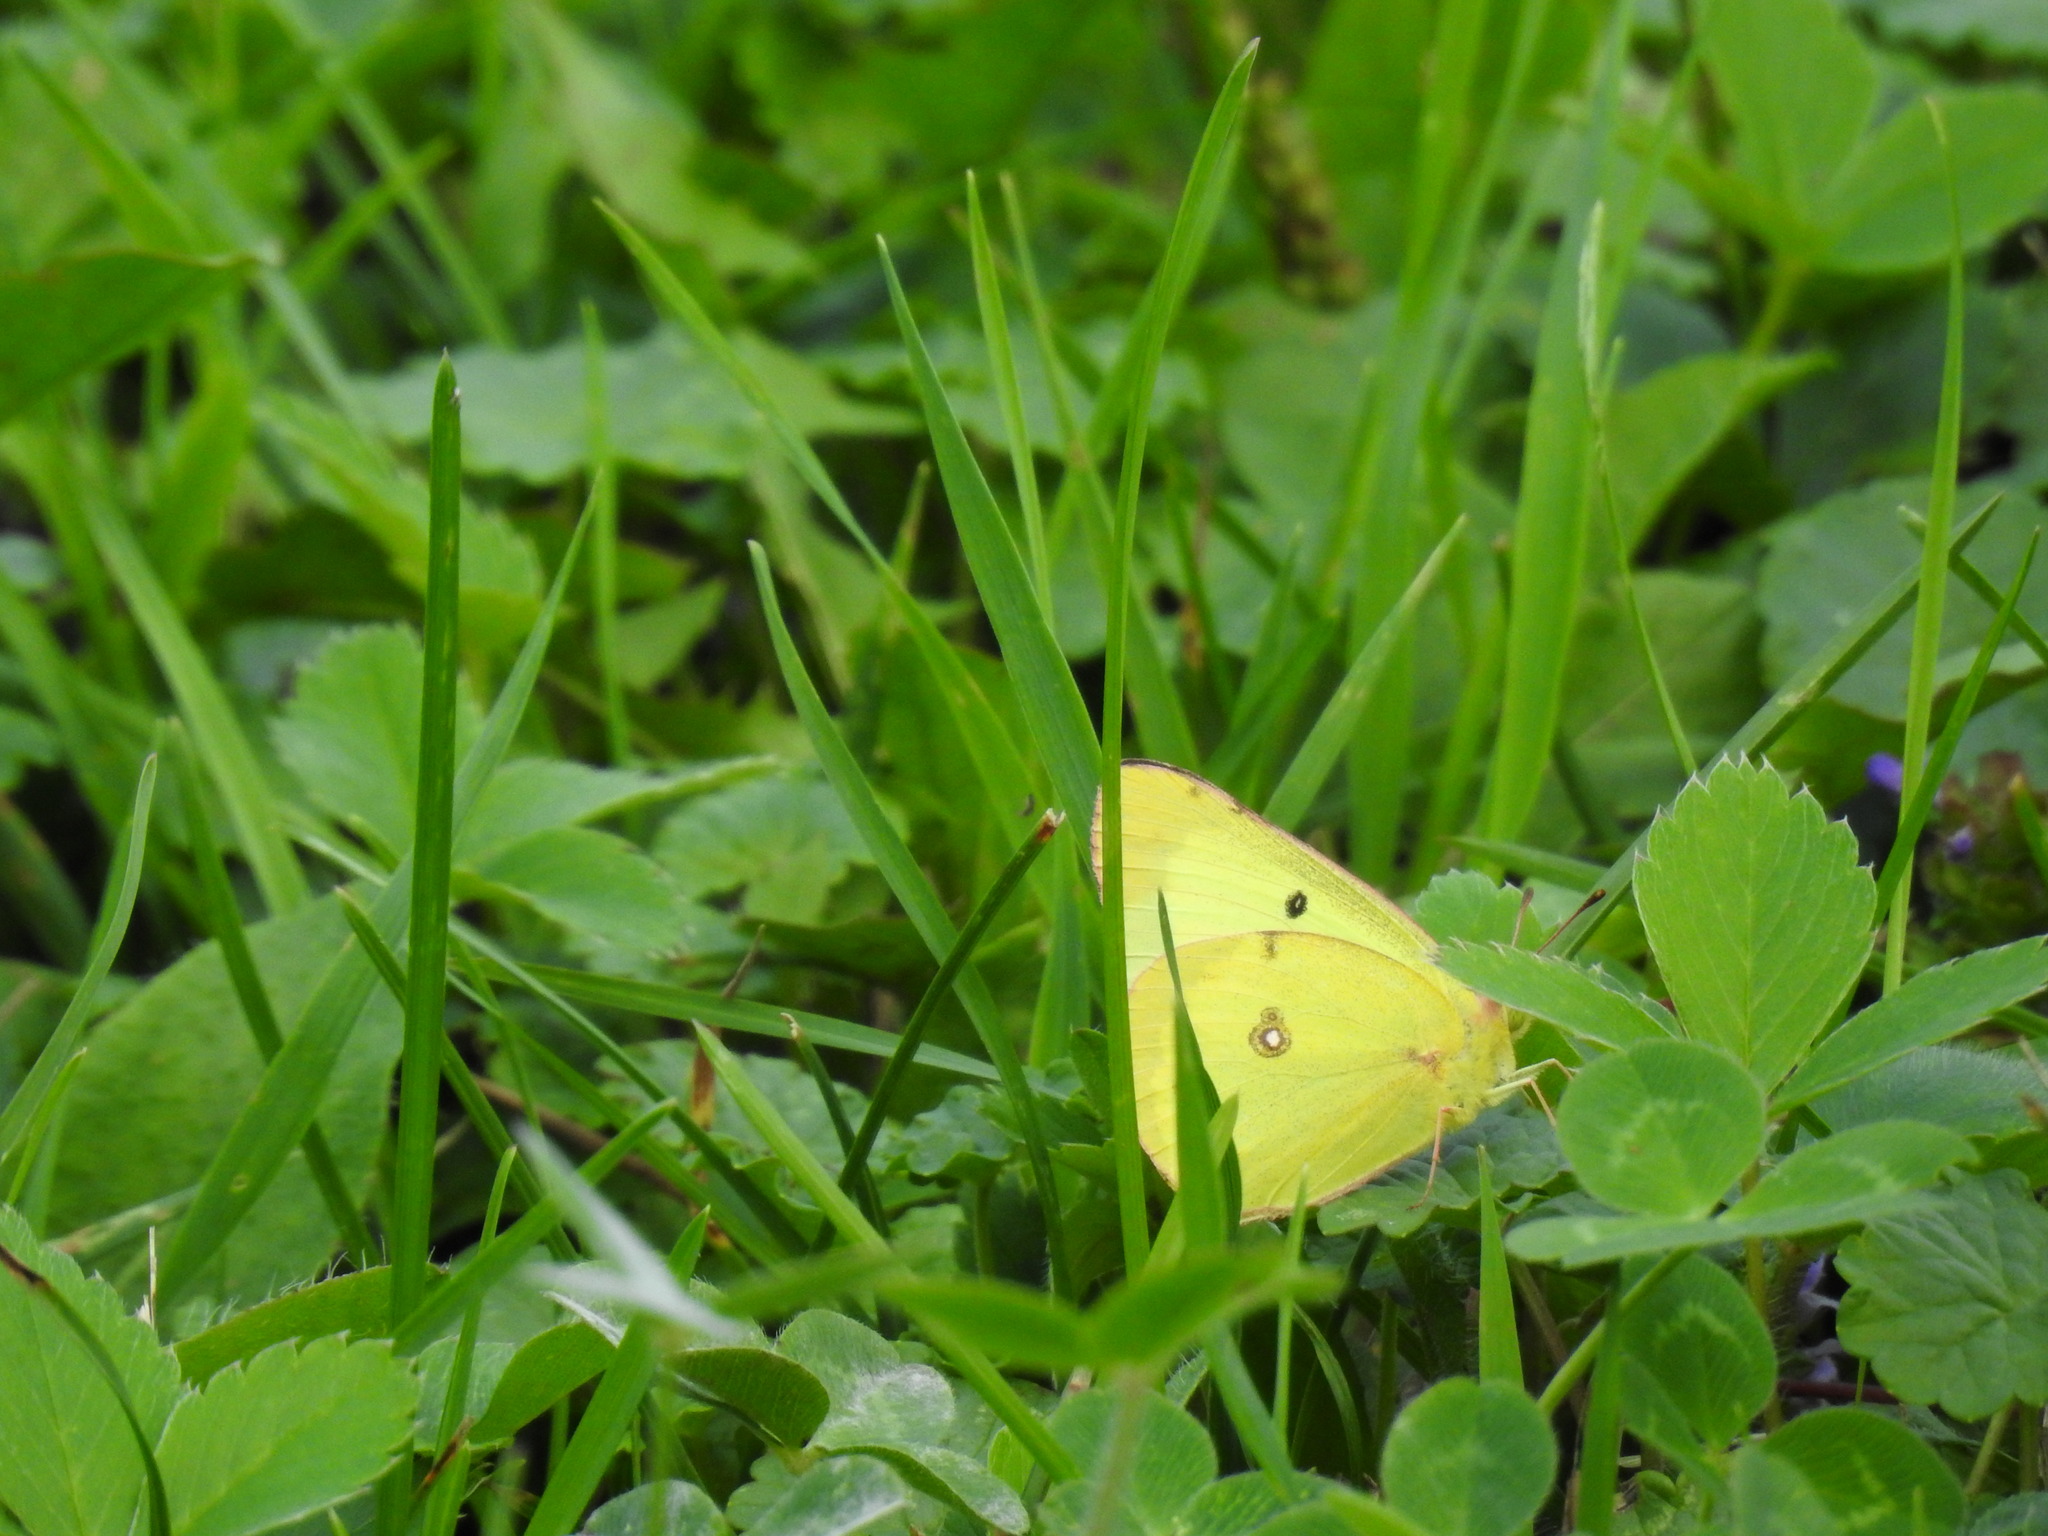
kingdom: Animalia
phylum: Arthropoda
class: Insecta
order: Lepidoptera
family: Pieridae
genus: Colias
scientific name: Colias philodice
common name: Clouded sulphur
